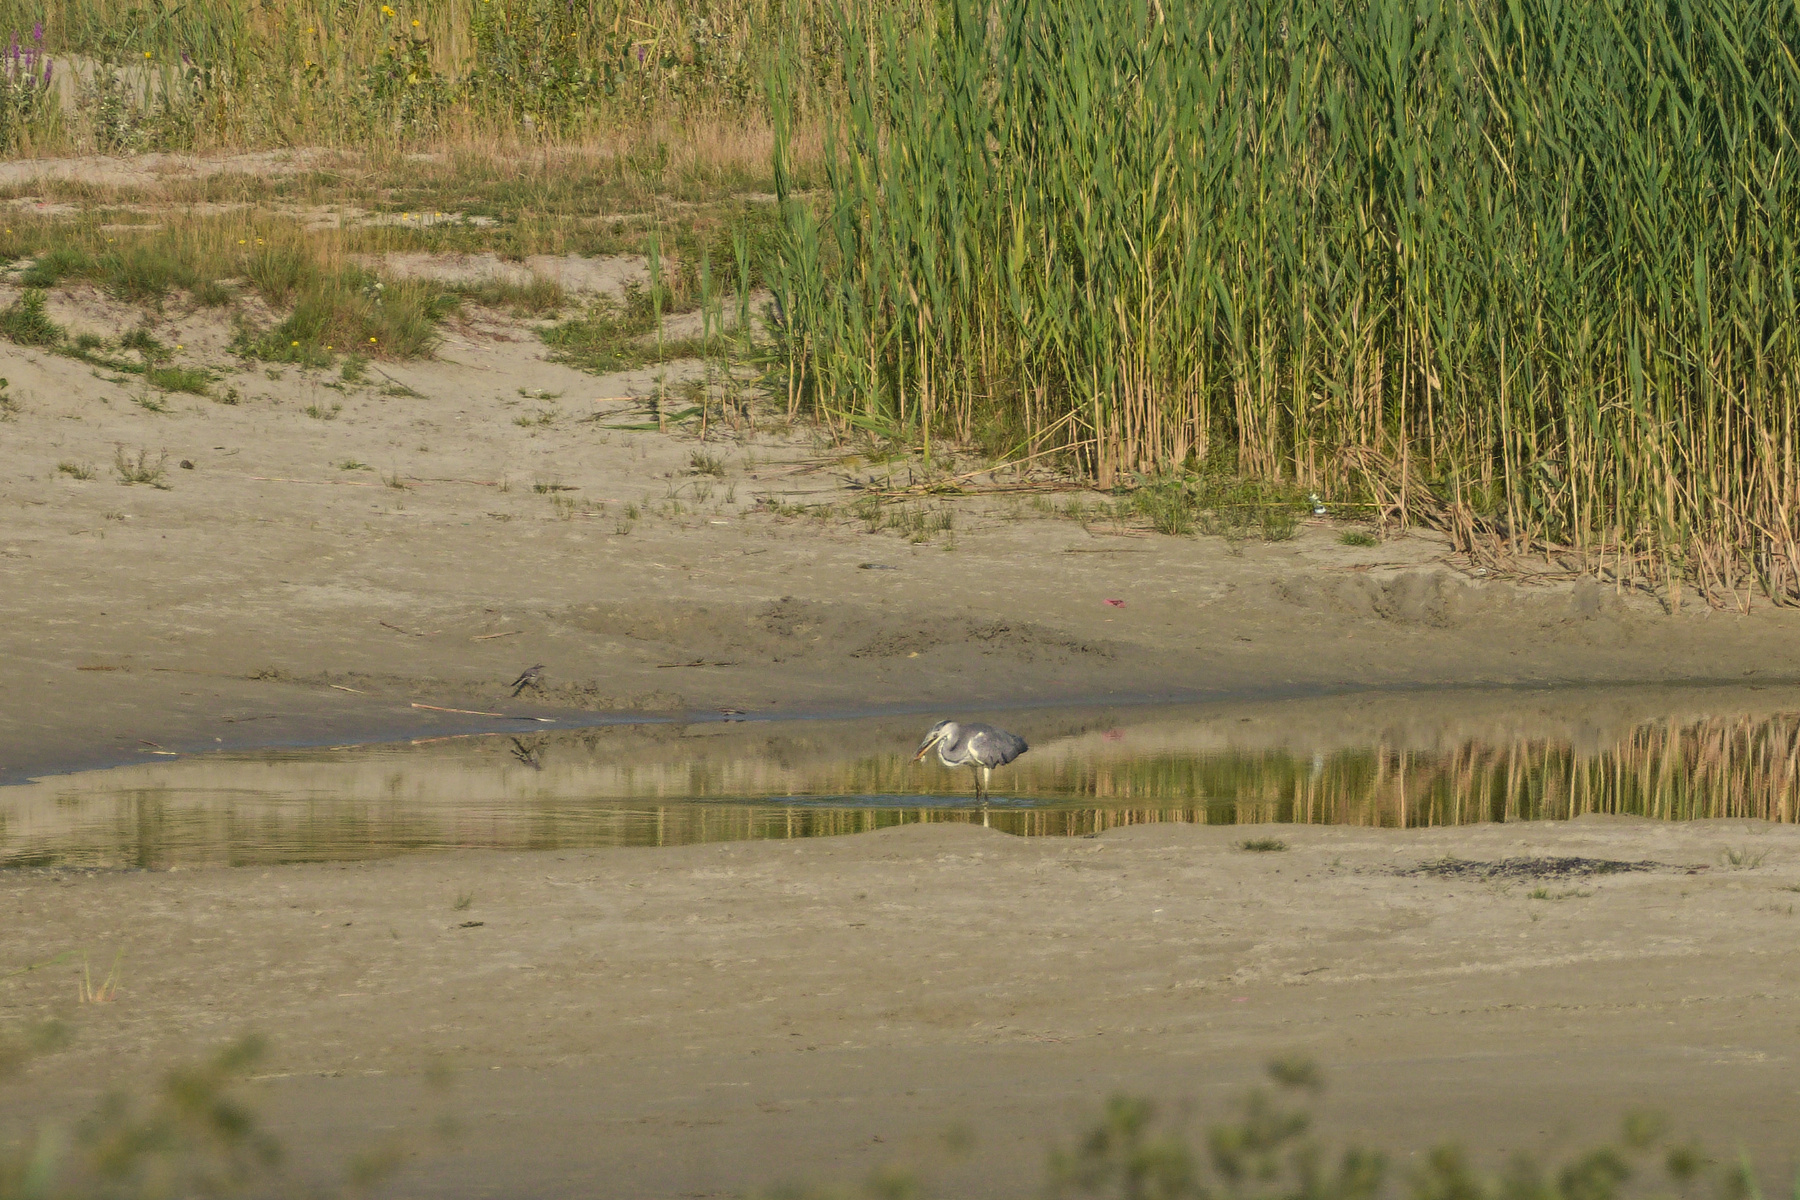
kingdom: Animalia
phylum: Chordata
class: Aves
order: Pelecaniformes
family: Ardeidae
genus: Ardea
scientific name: Ardea cinerea
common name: Grey heron
